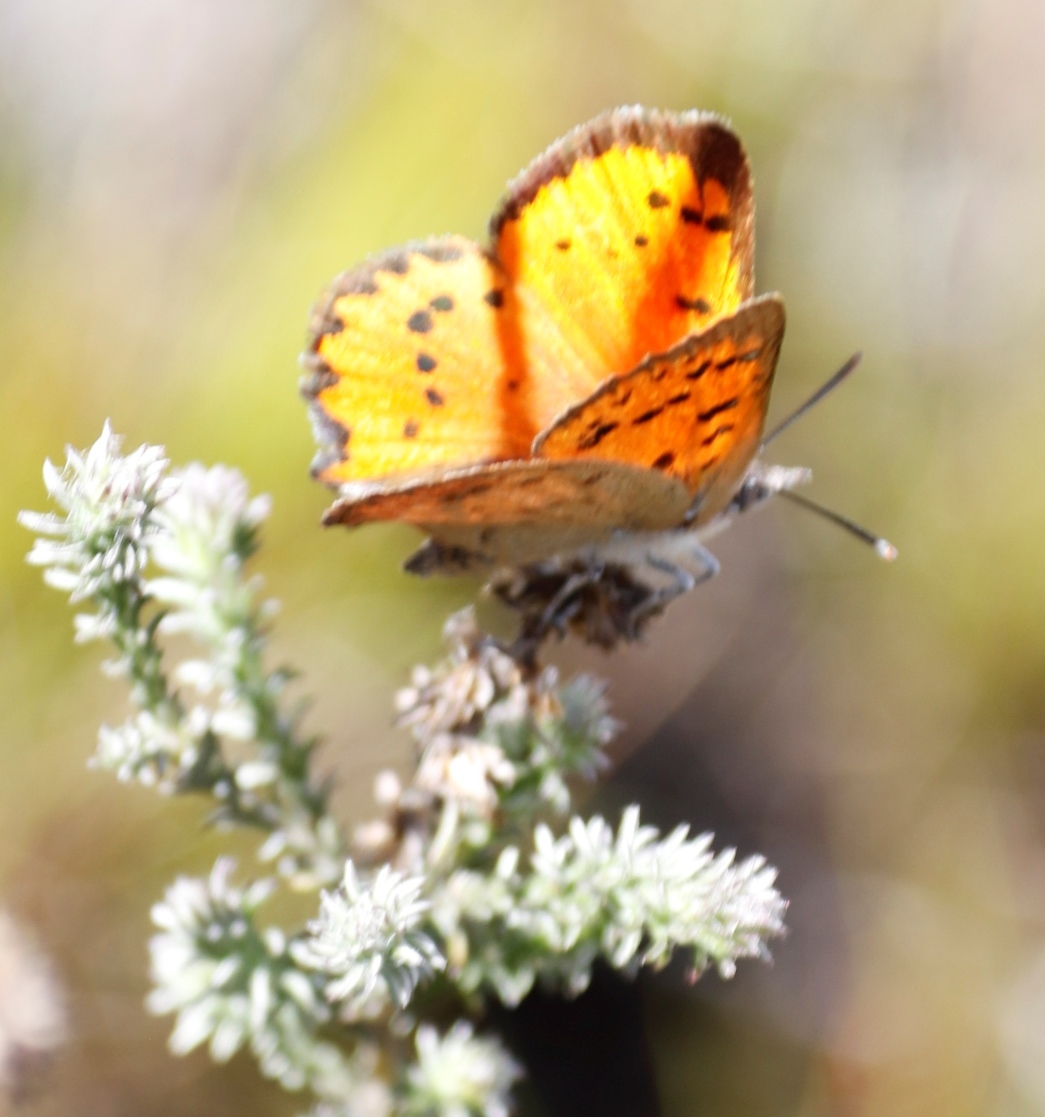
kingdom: Animalia
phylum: Arthropoda
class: Insecta
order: Lepidoptera
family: Lycaenidae
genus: Zeritis
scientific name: Zeritis chrysaor
